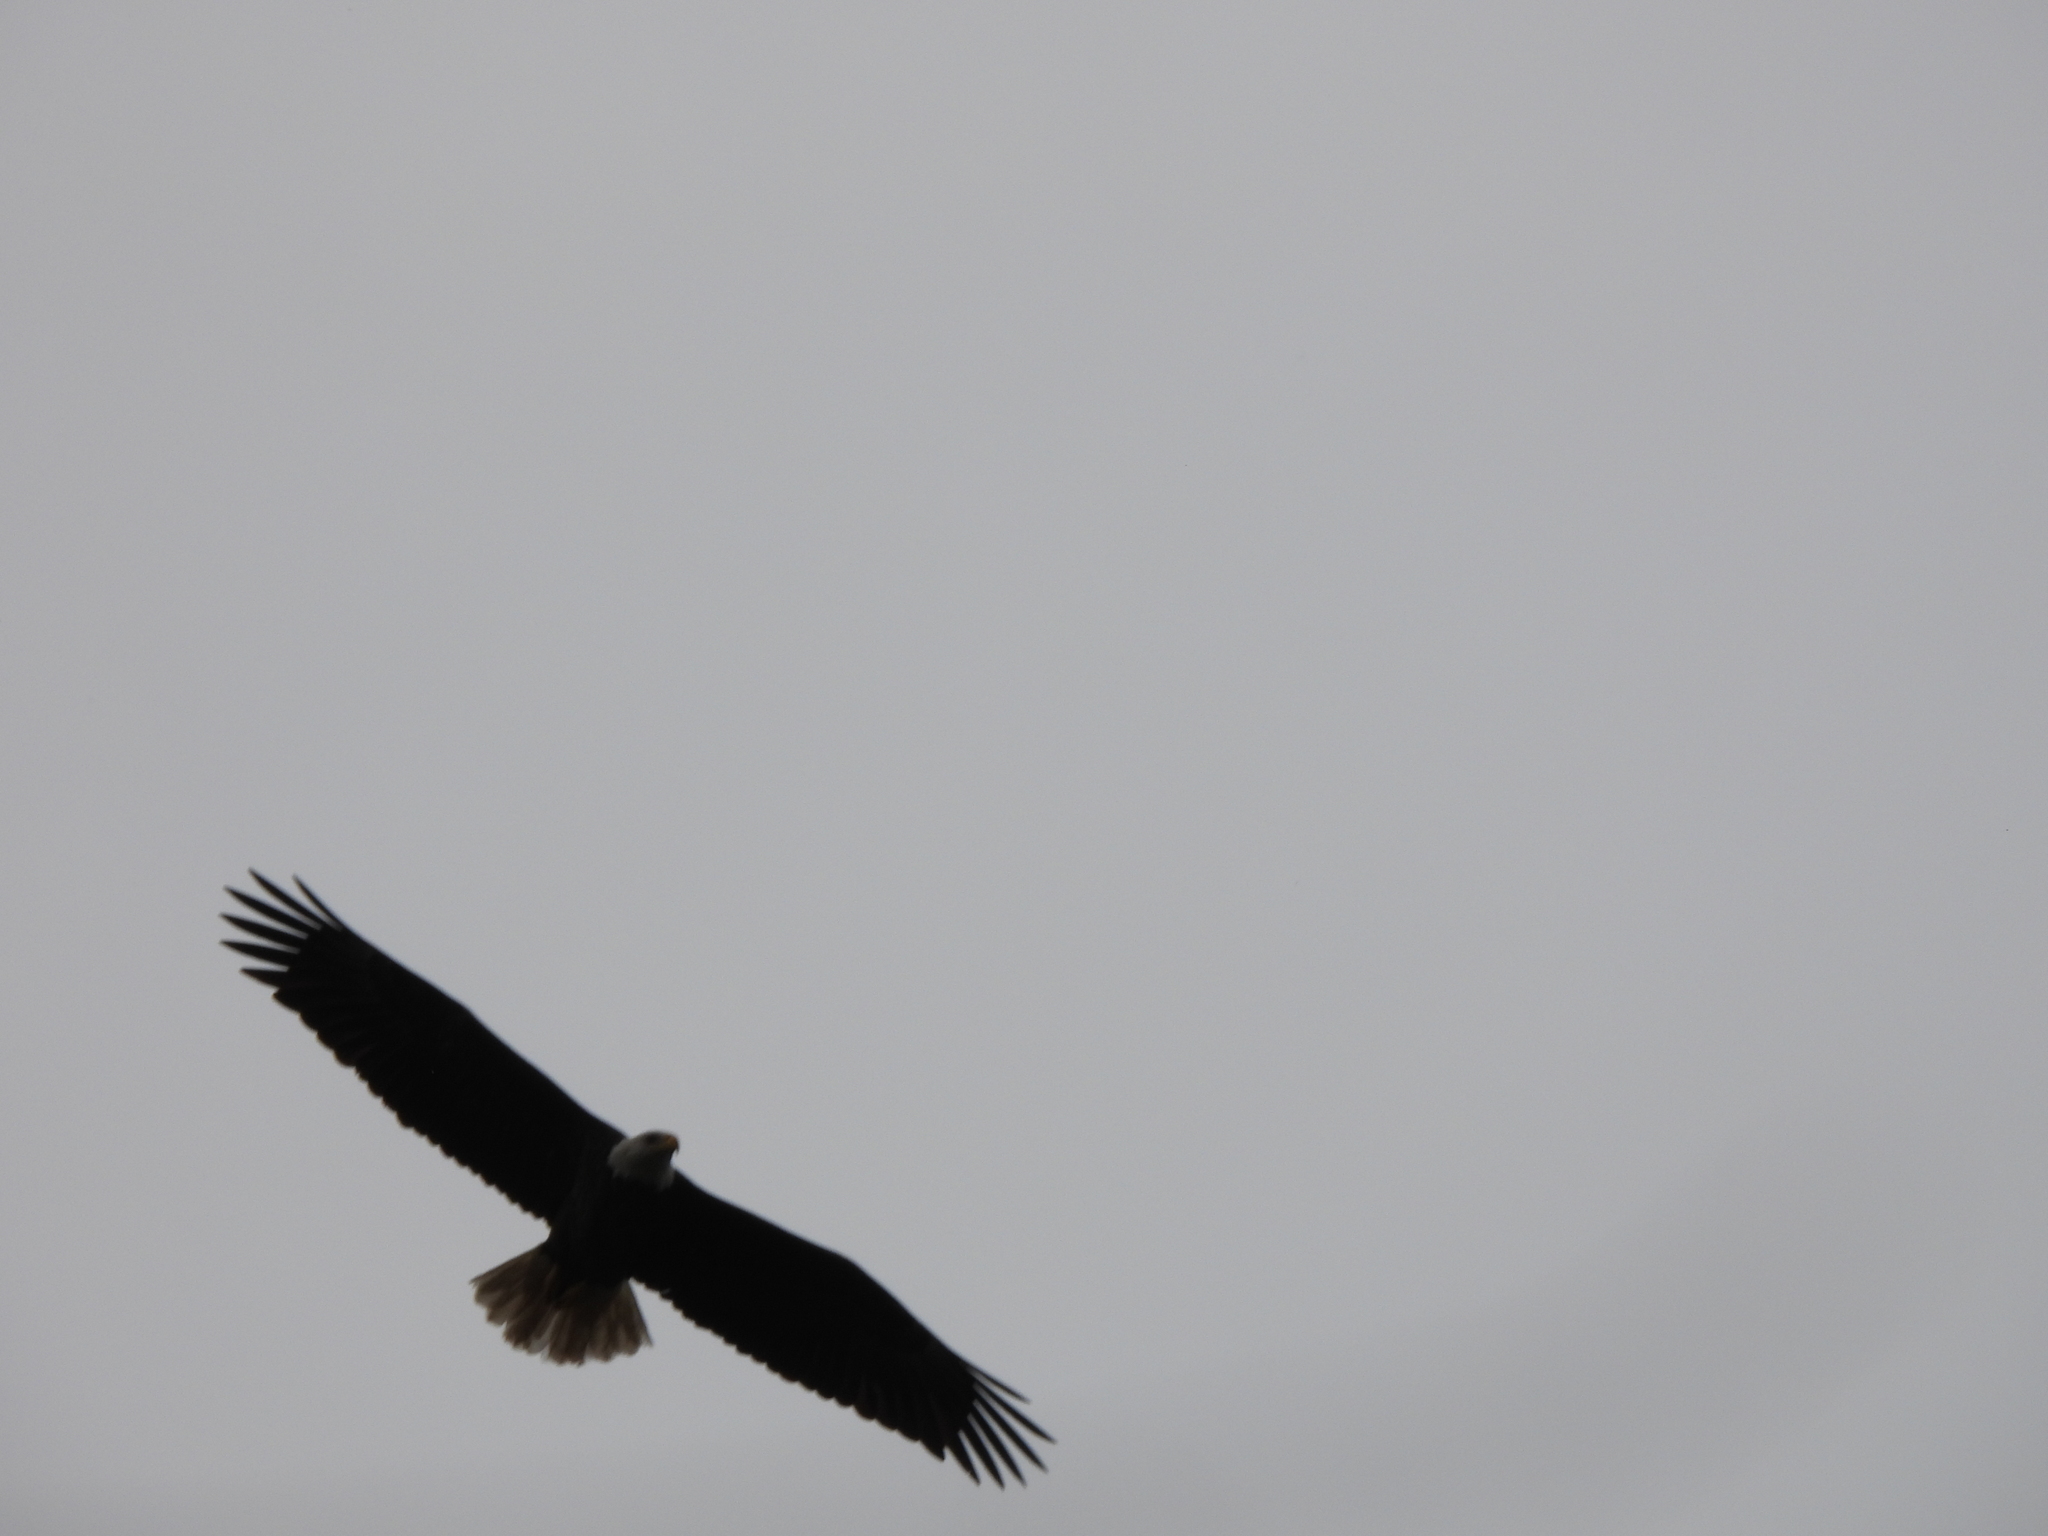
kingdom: Animalia
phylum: Chordata
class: Aves
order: Accipitriformes
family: Accipitridae
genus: Haliaeetus
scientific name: Haliaeetus leucocephalus
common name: Bald eagle
